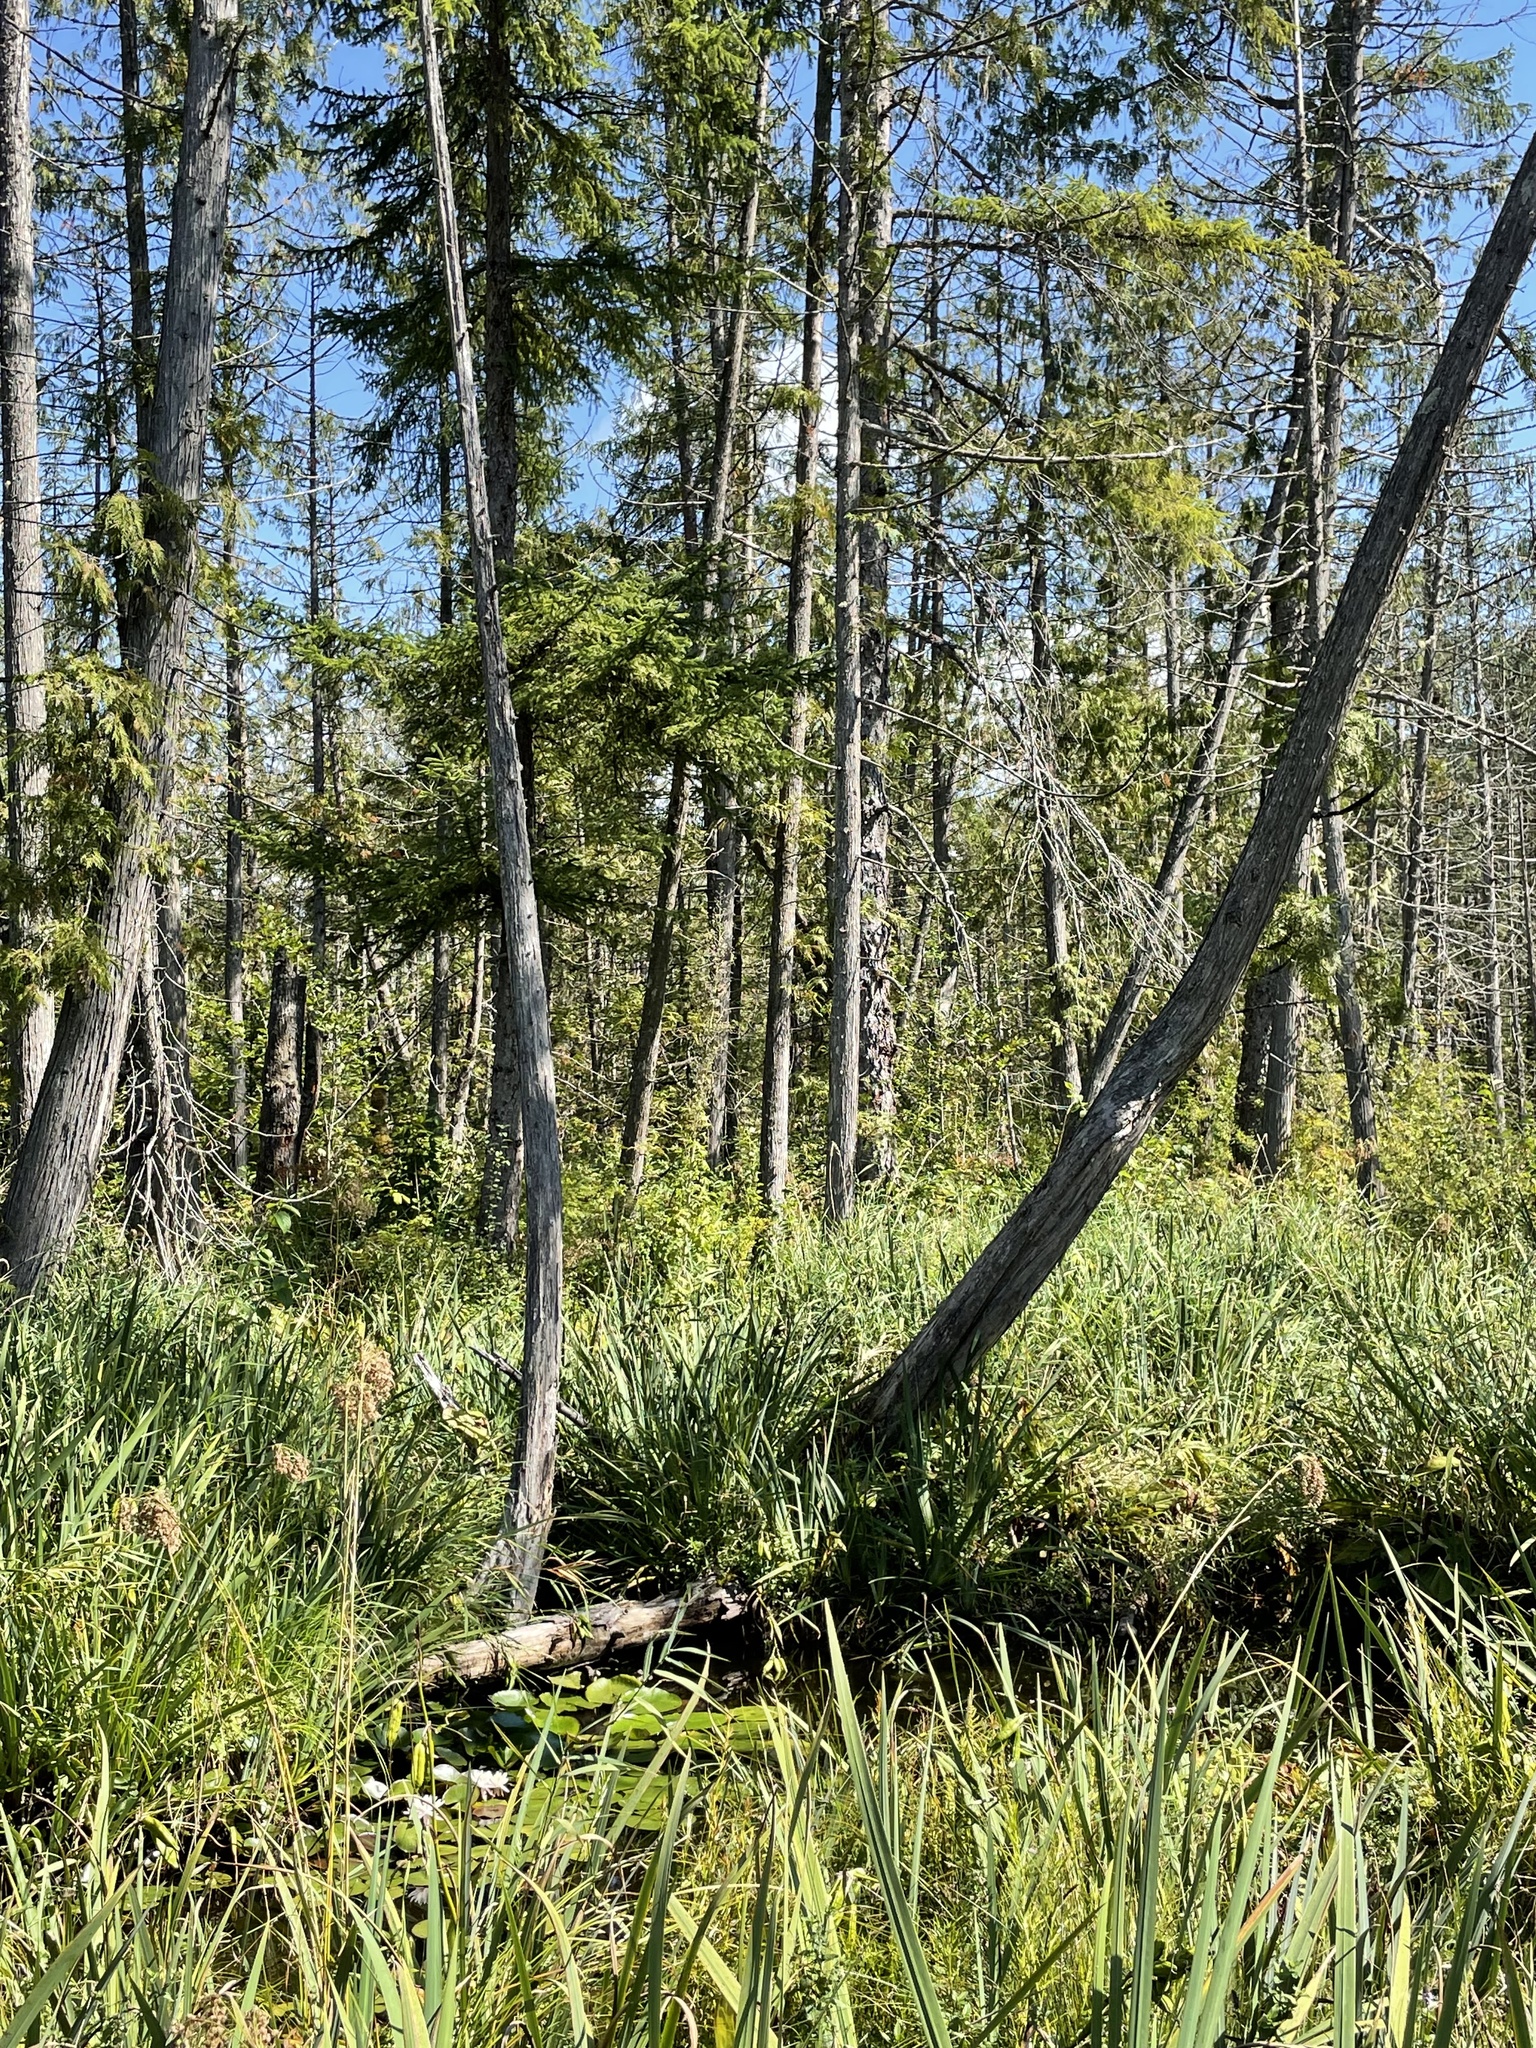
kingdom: Plantae
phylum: Tracheophyta
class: Liliopsida
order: Asparagales
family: Iridaceae
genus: Iris
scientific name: Iris pseudacorus
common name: Yellow flag
